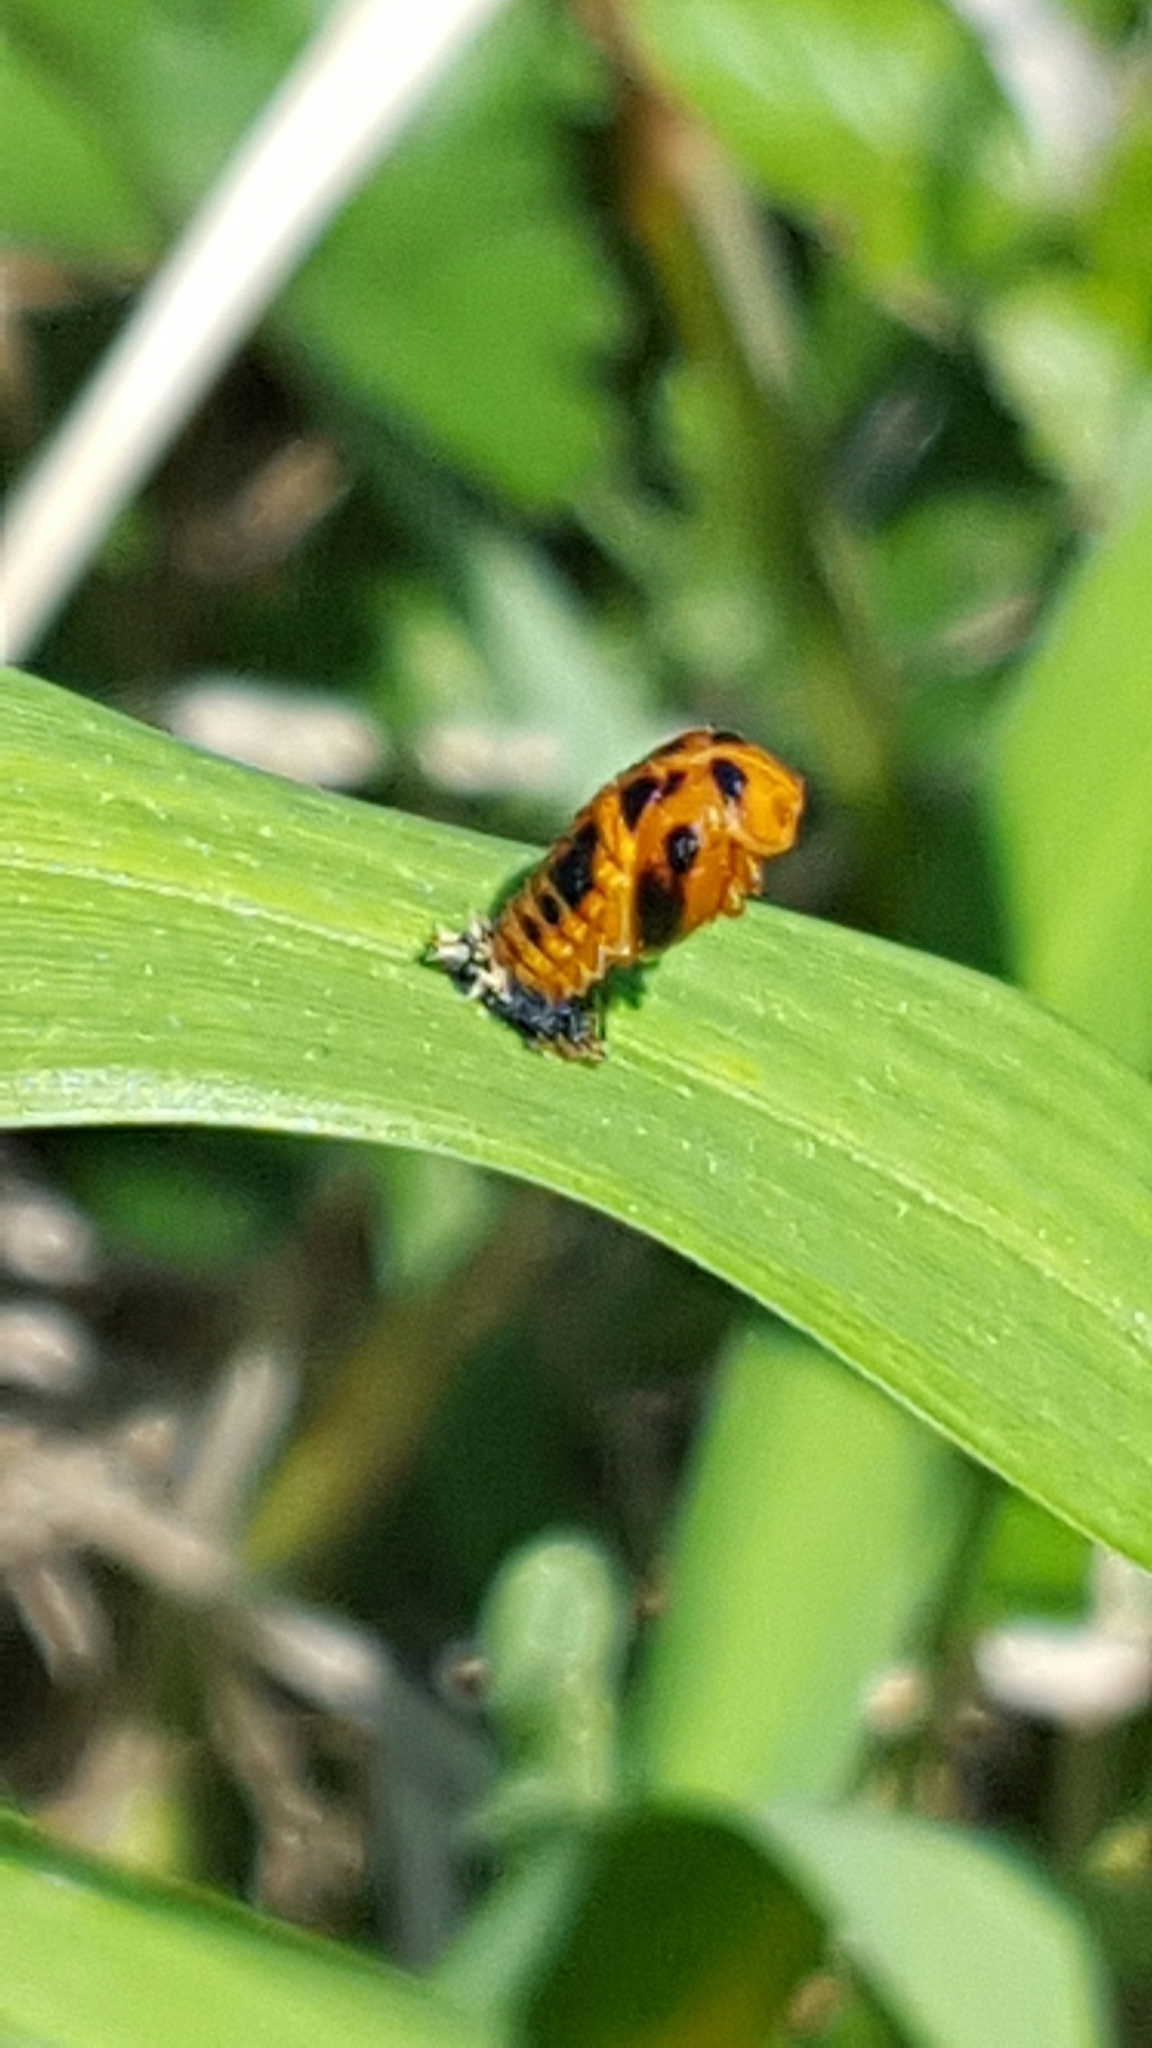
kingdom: Animalia
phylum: Arthropoda
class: Insecta
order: Coleoptera
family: Coccinellidae
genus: Harmonia
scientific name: Harmonia axyridis
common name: Harlequin ladybird
